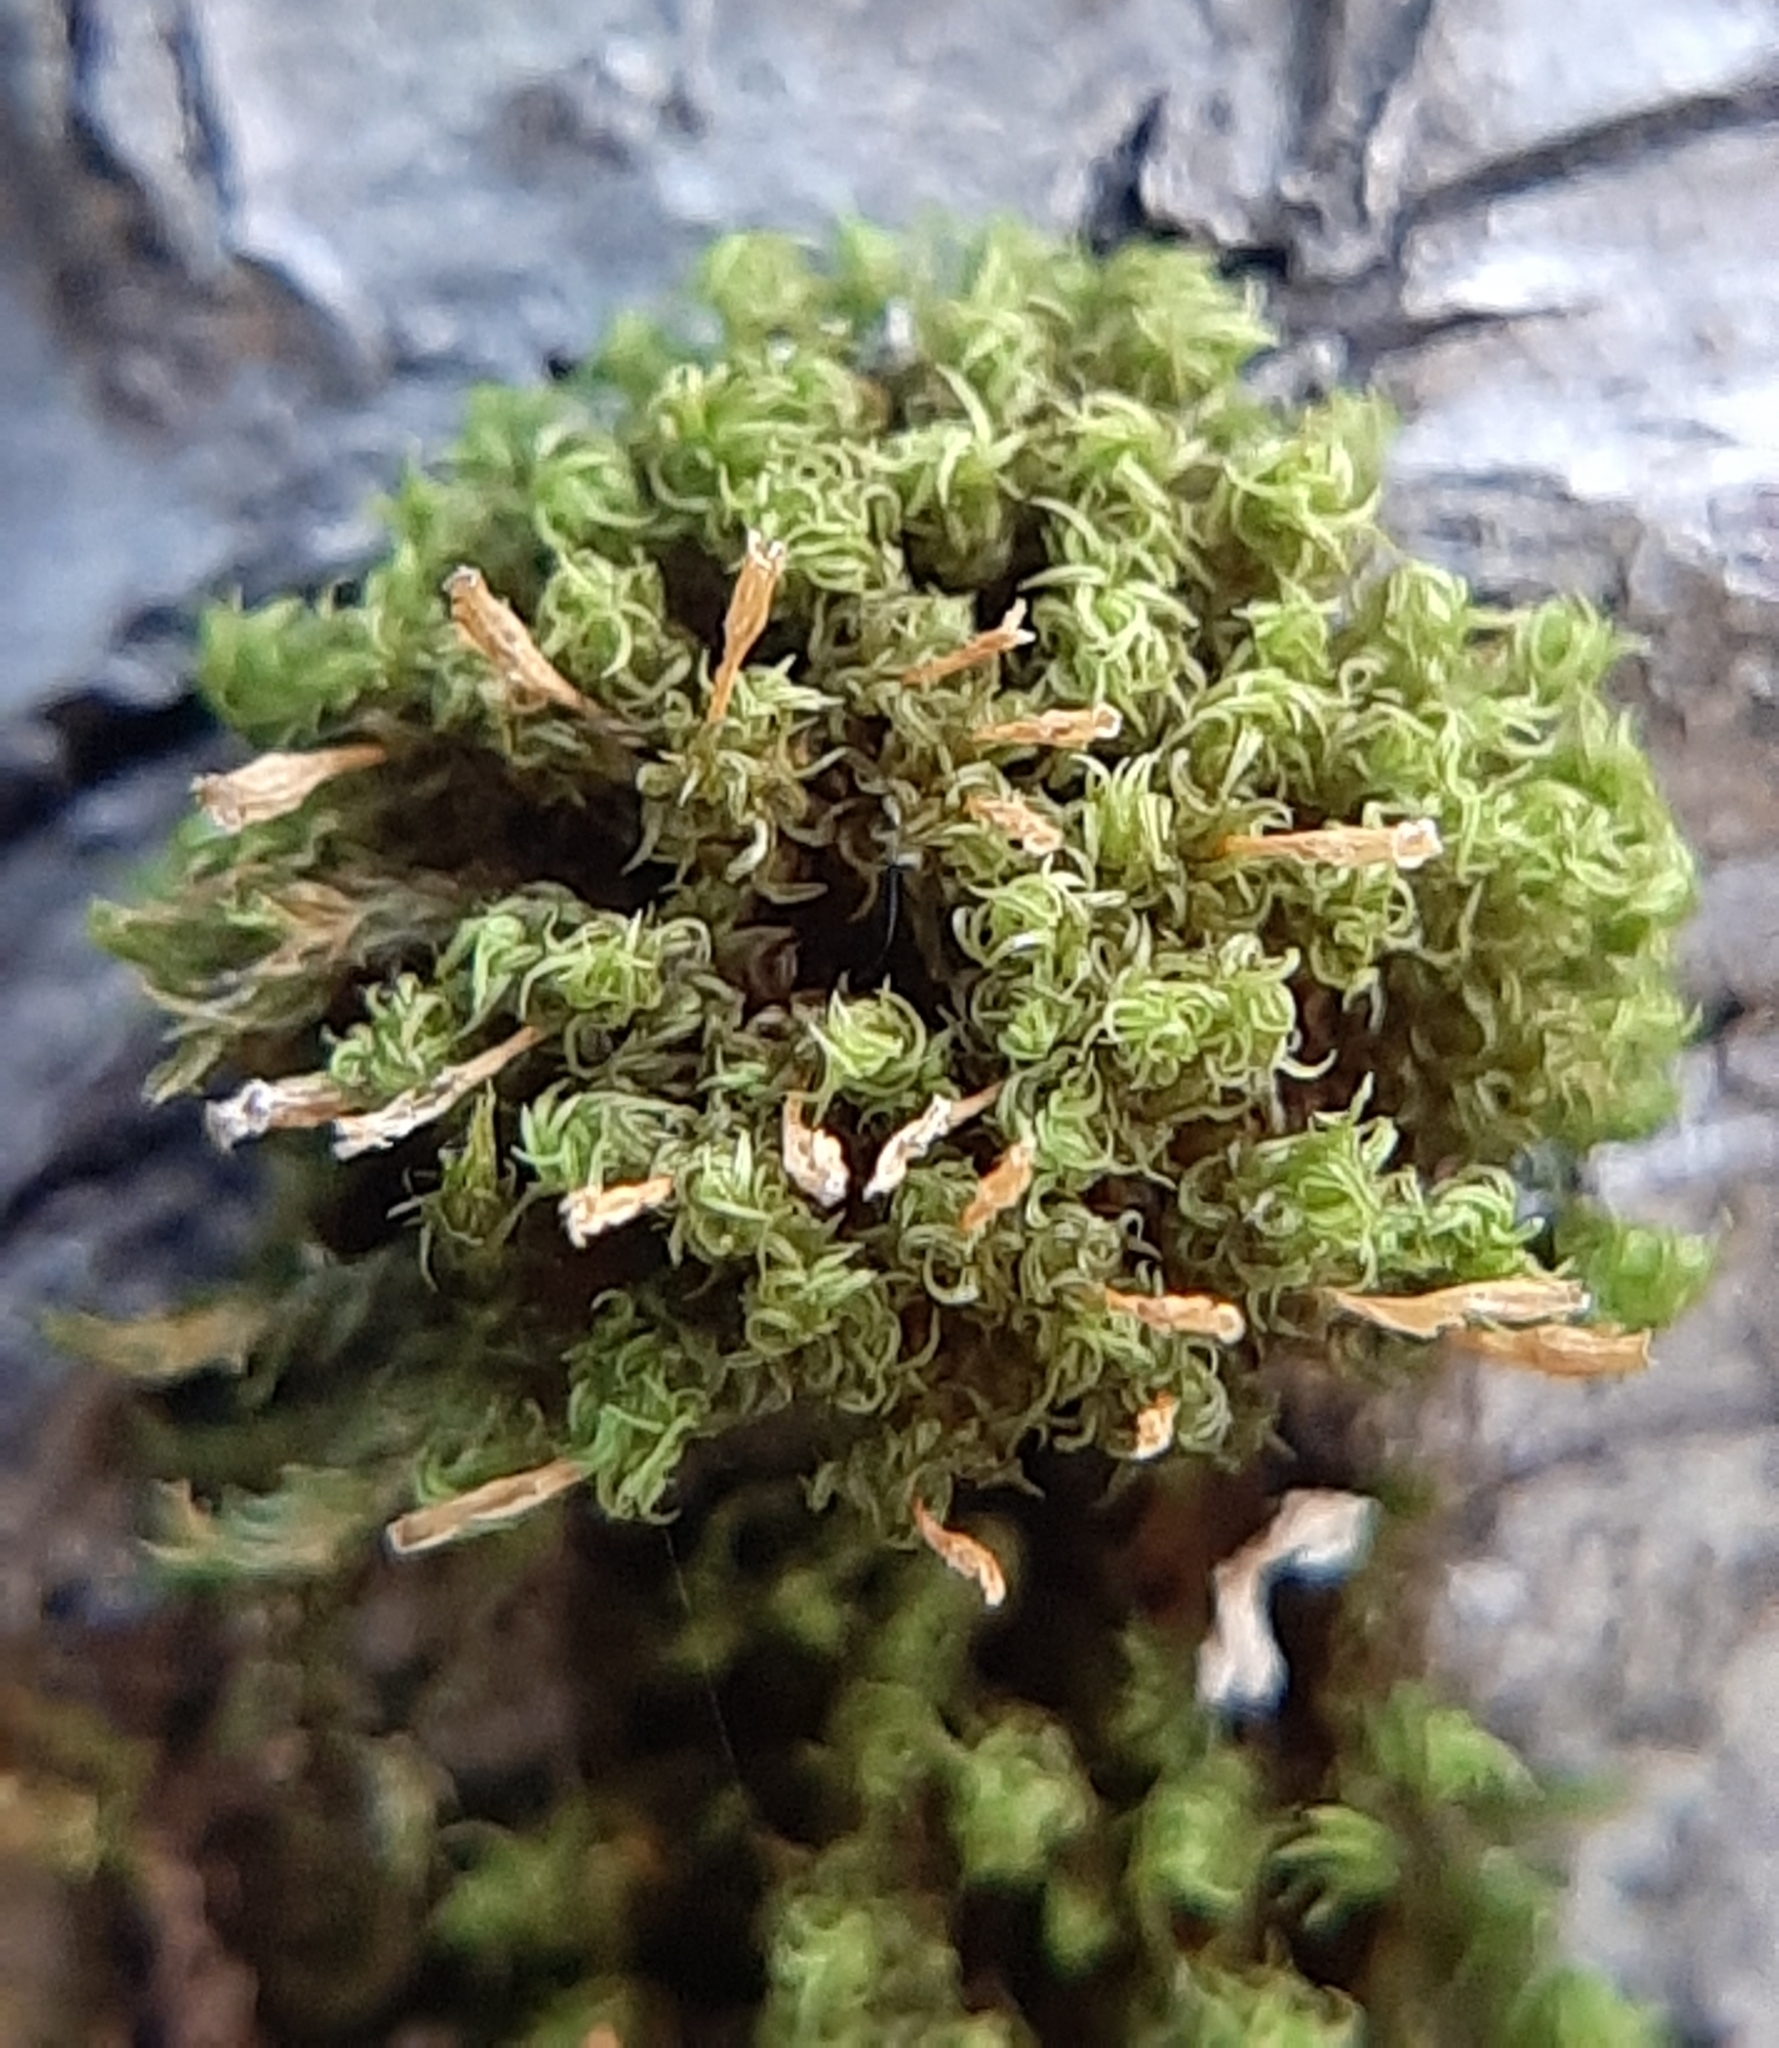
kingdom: Plantae
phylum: Bryophyta
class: Bryopsida
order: Orthotrichales
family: Orthotrichaceae
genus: Ulota
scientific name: Ulota crispa
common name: Crisped pincushion moss
